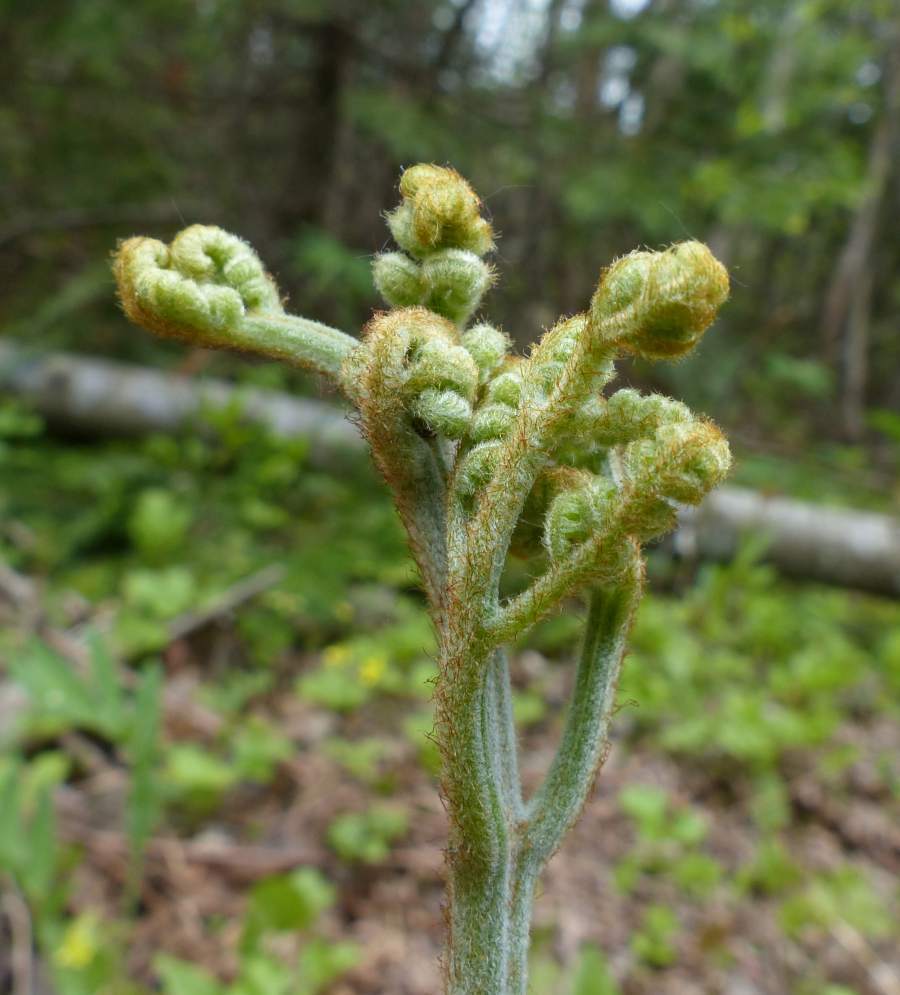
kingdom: Plantae
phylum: Tracheophyta
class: Polypodiopsida
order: Polypodiales
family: Dennstaedtiaceae
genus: Pteridium
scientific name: Pteridium aquilinum
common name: Bracken
